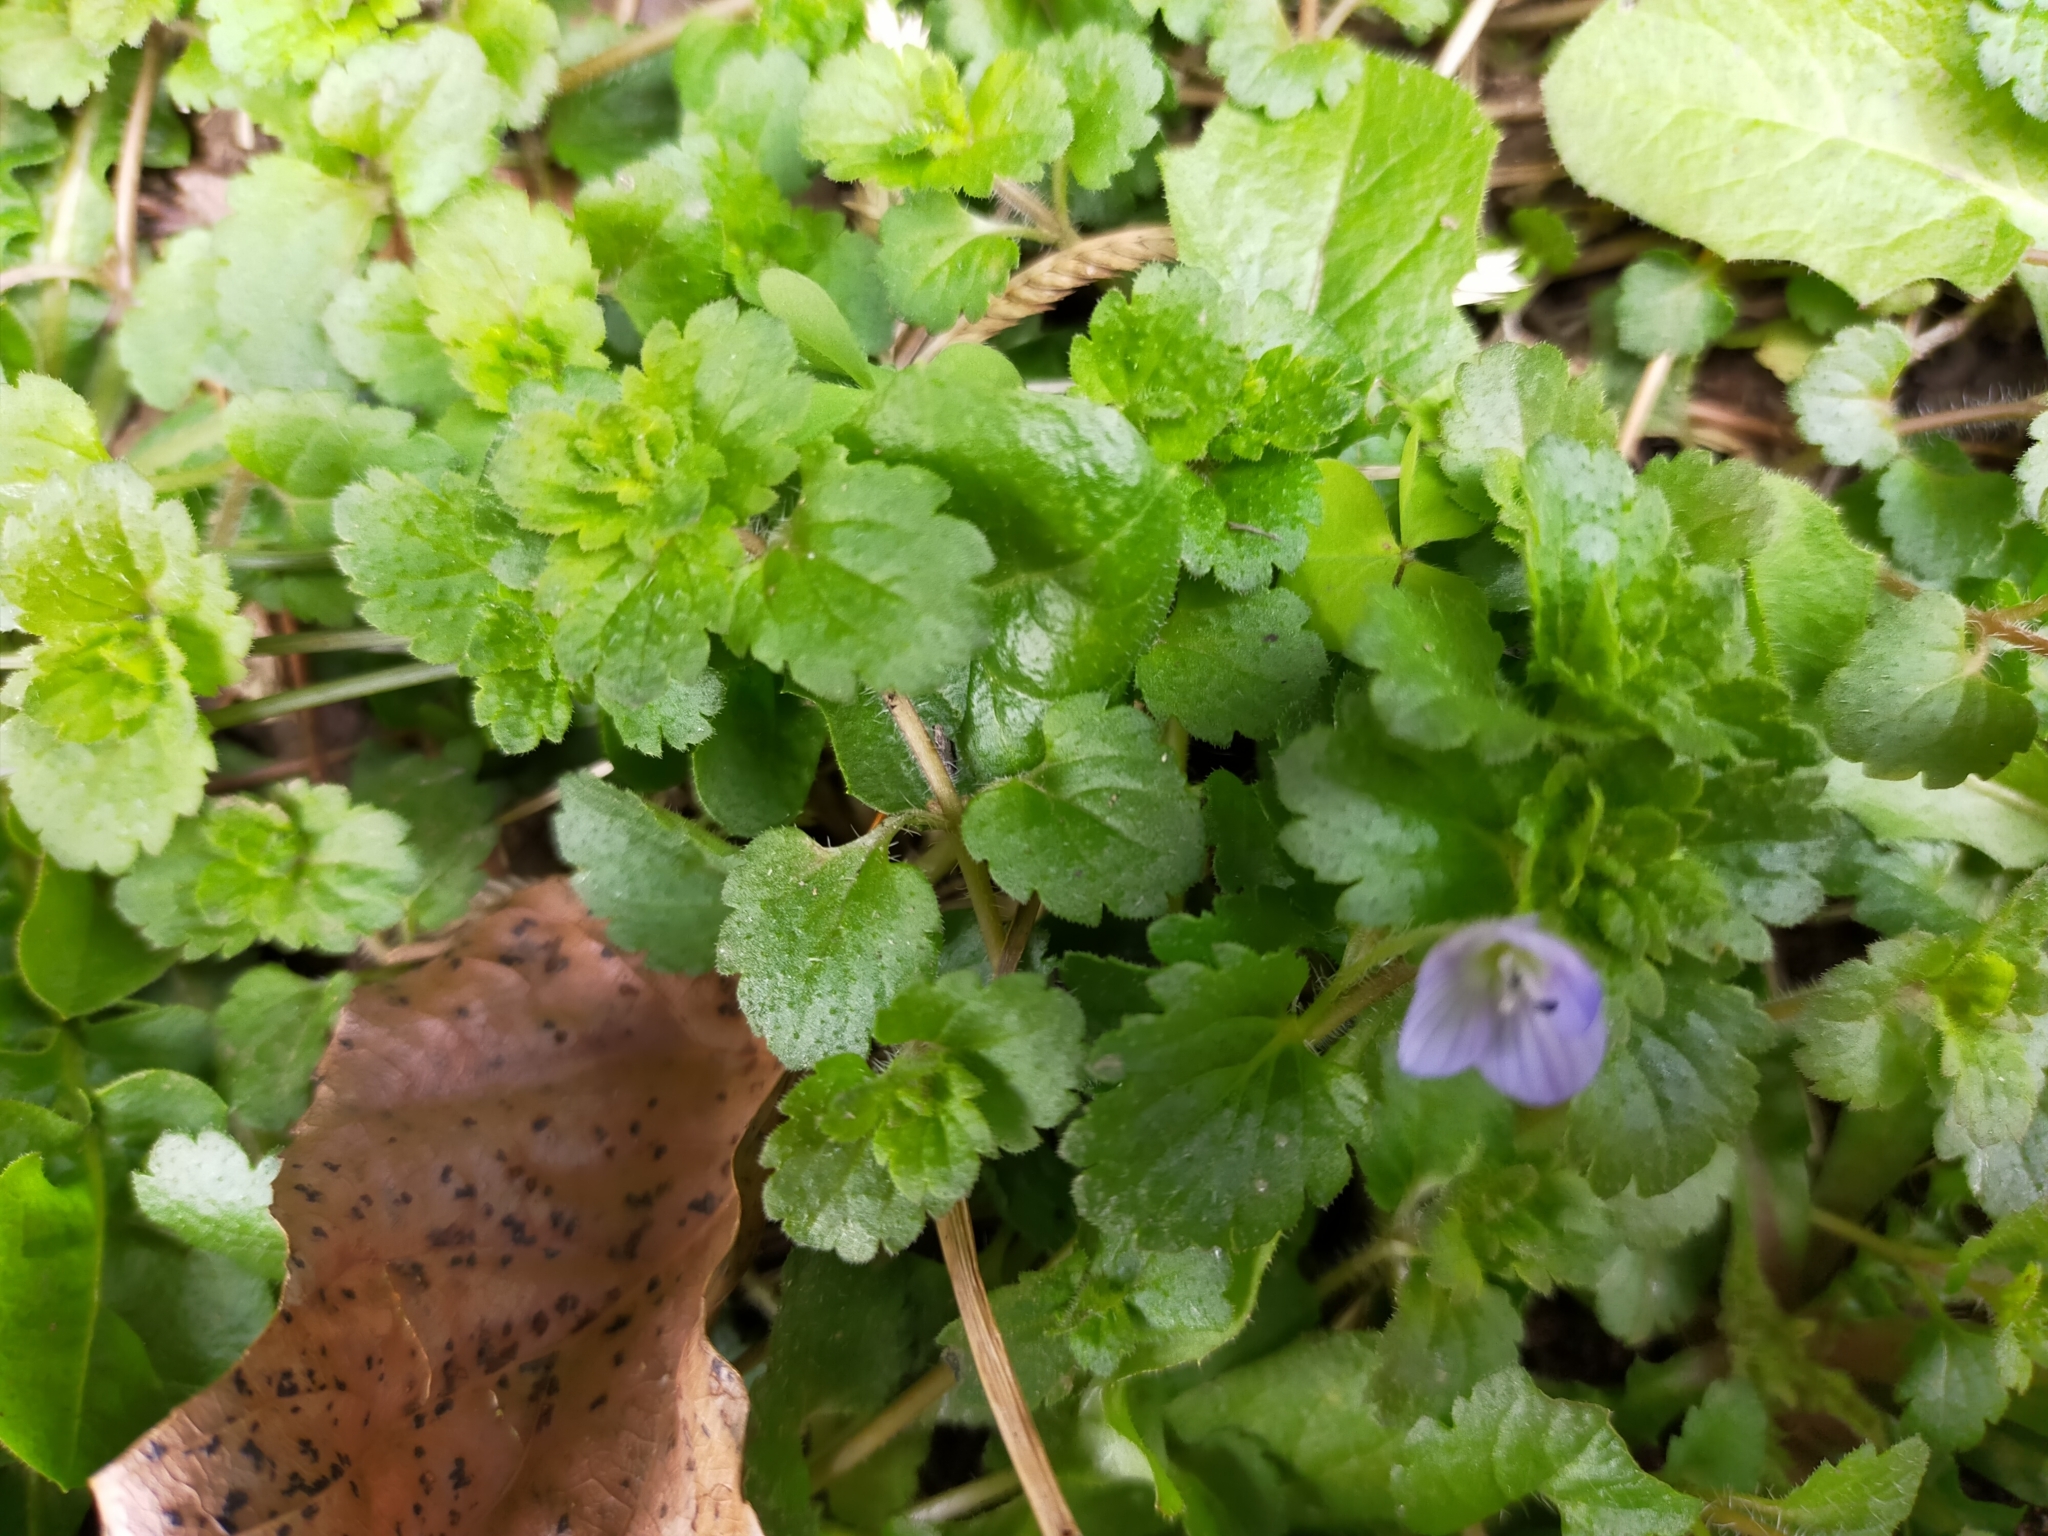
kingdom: Plantae
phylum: Tracheophyta
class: Magnoliopsida
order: Lamiales
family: Plantaginaceae
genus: Veronica
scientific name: Veronica persica
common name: Common field-speedwell
